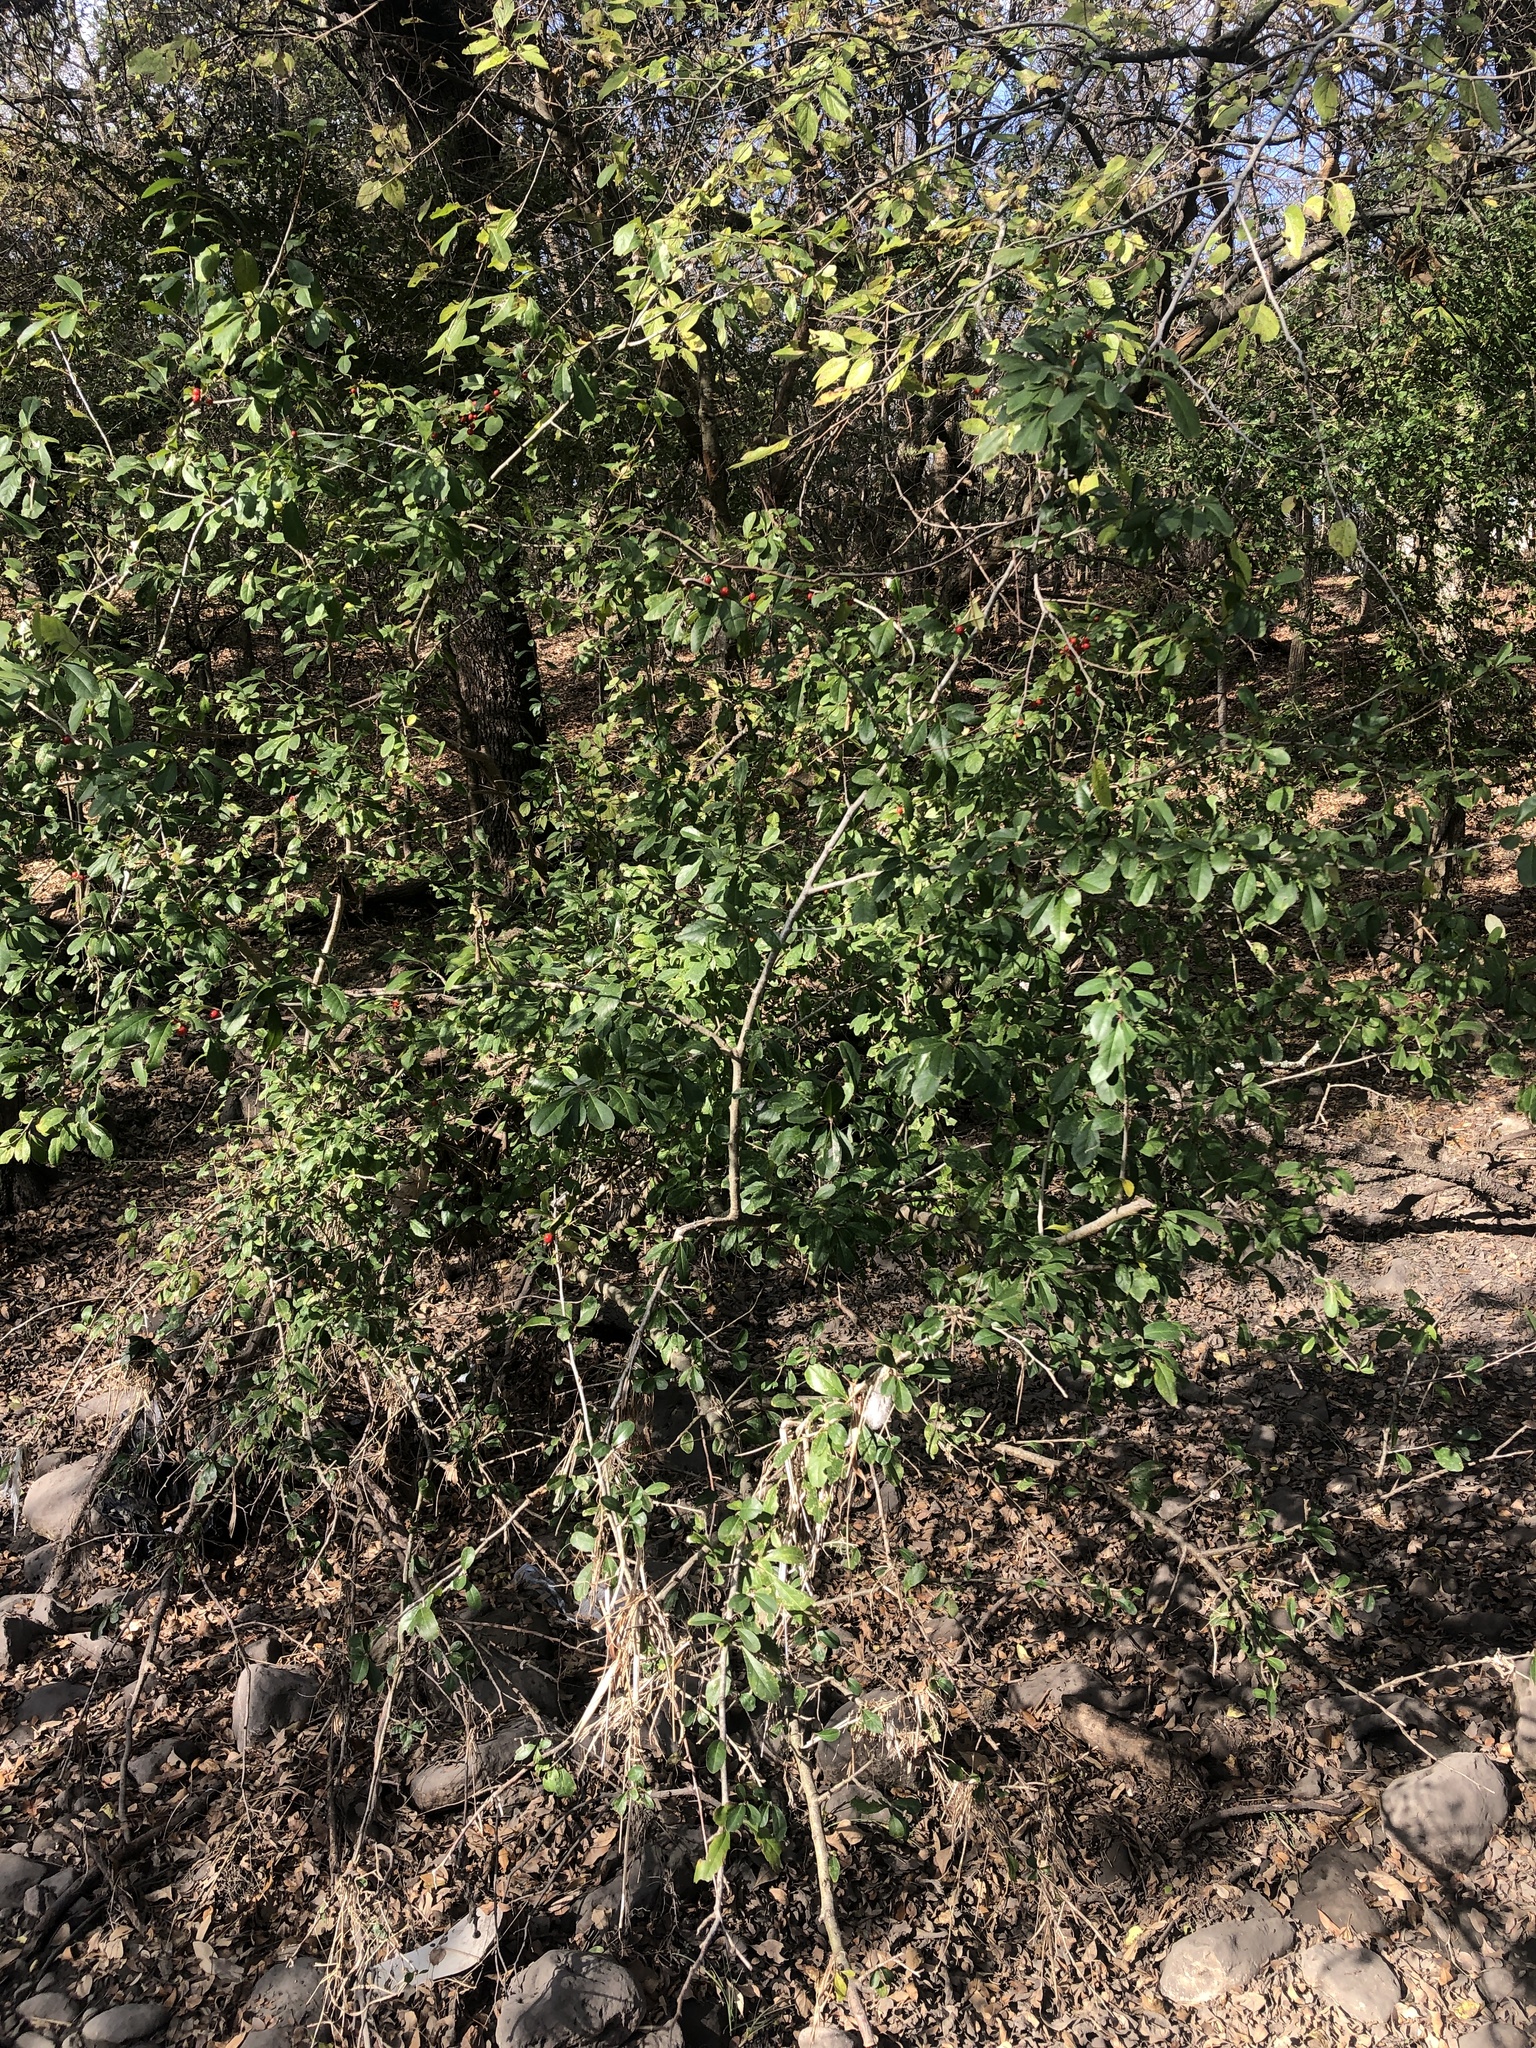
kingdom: Plantae
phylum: Tracheophyta
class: Magnoliopsida
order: Aquifoliales
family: Aquifoliaceae
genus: Ilex
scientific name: Ilex decidua
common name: Possum-haw
